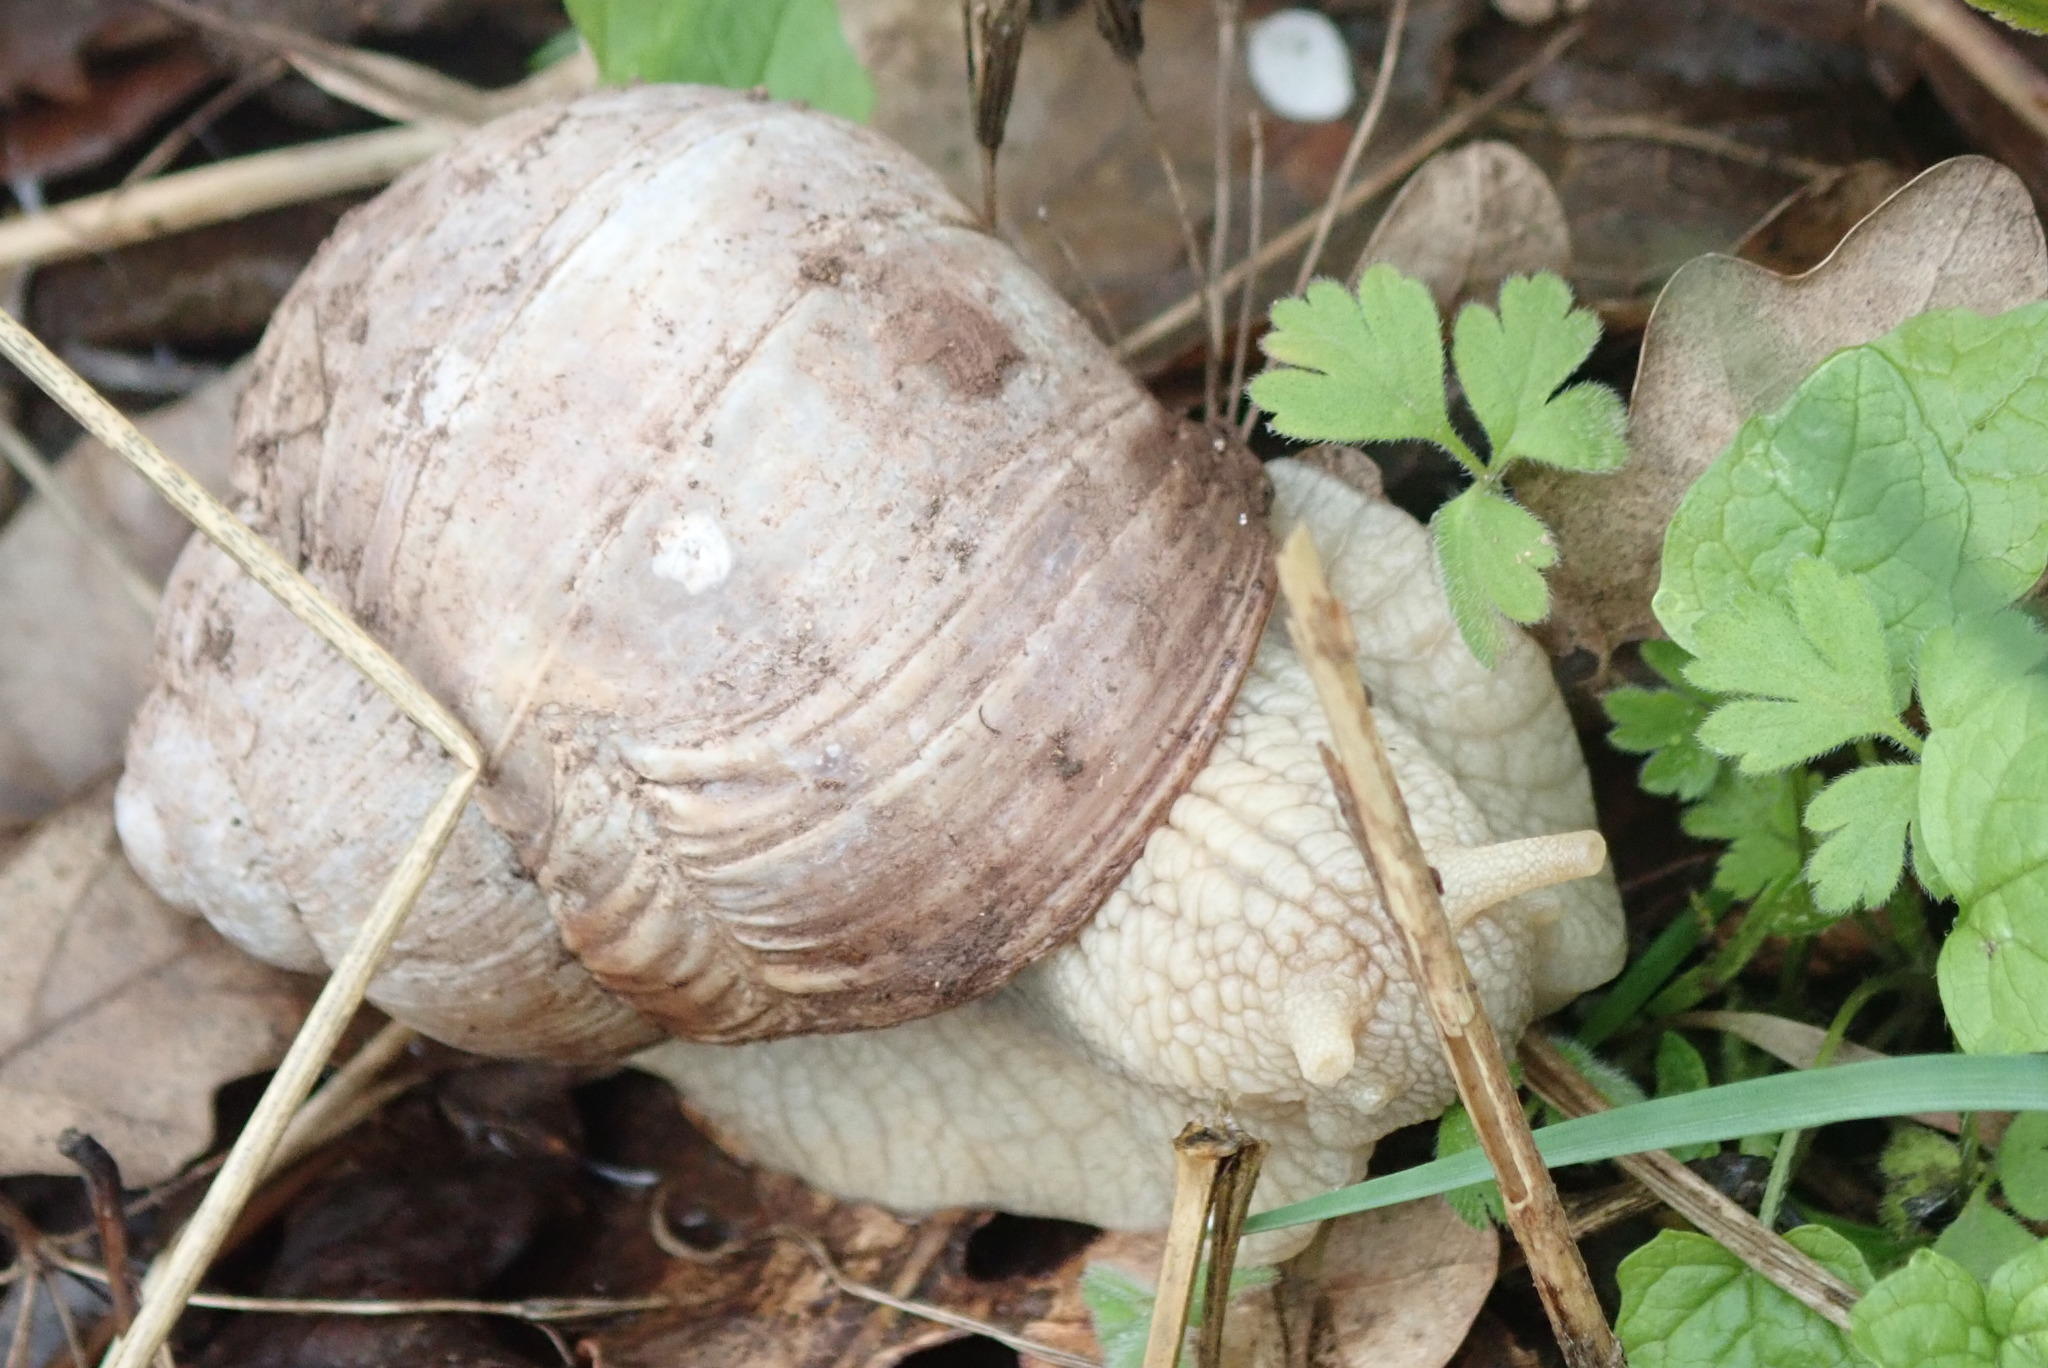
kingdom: Animalia
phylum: Mollusca
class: Gastropoda
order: Stylommatophora
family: Helicidae
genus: Helix
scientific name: Helix pomatia
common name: Roman snail
